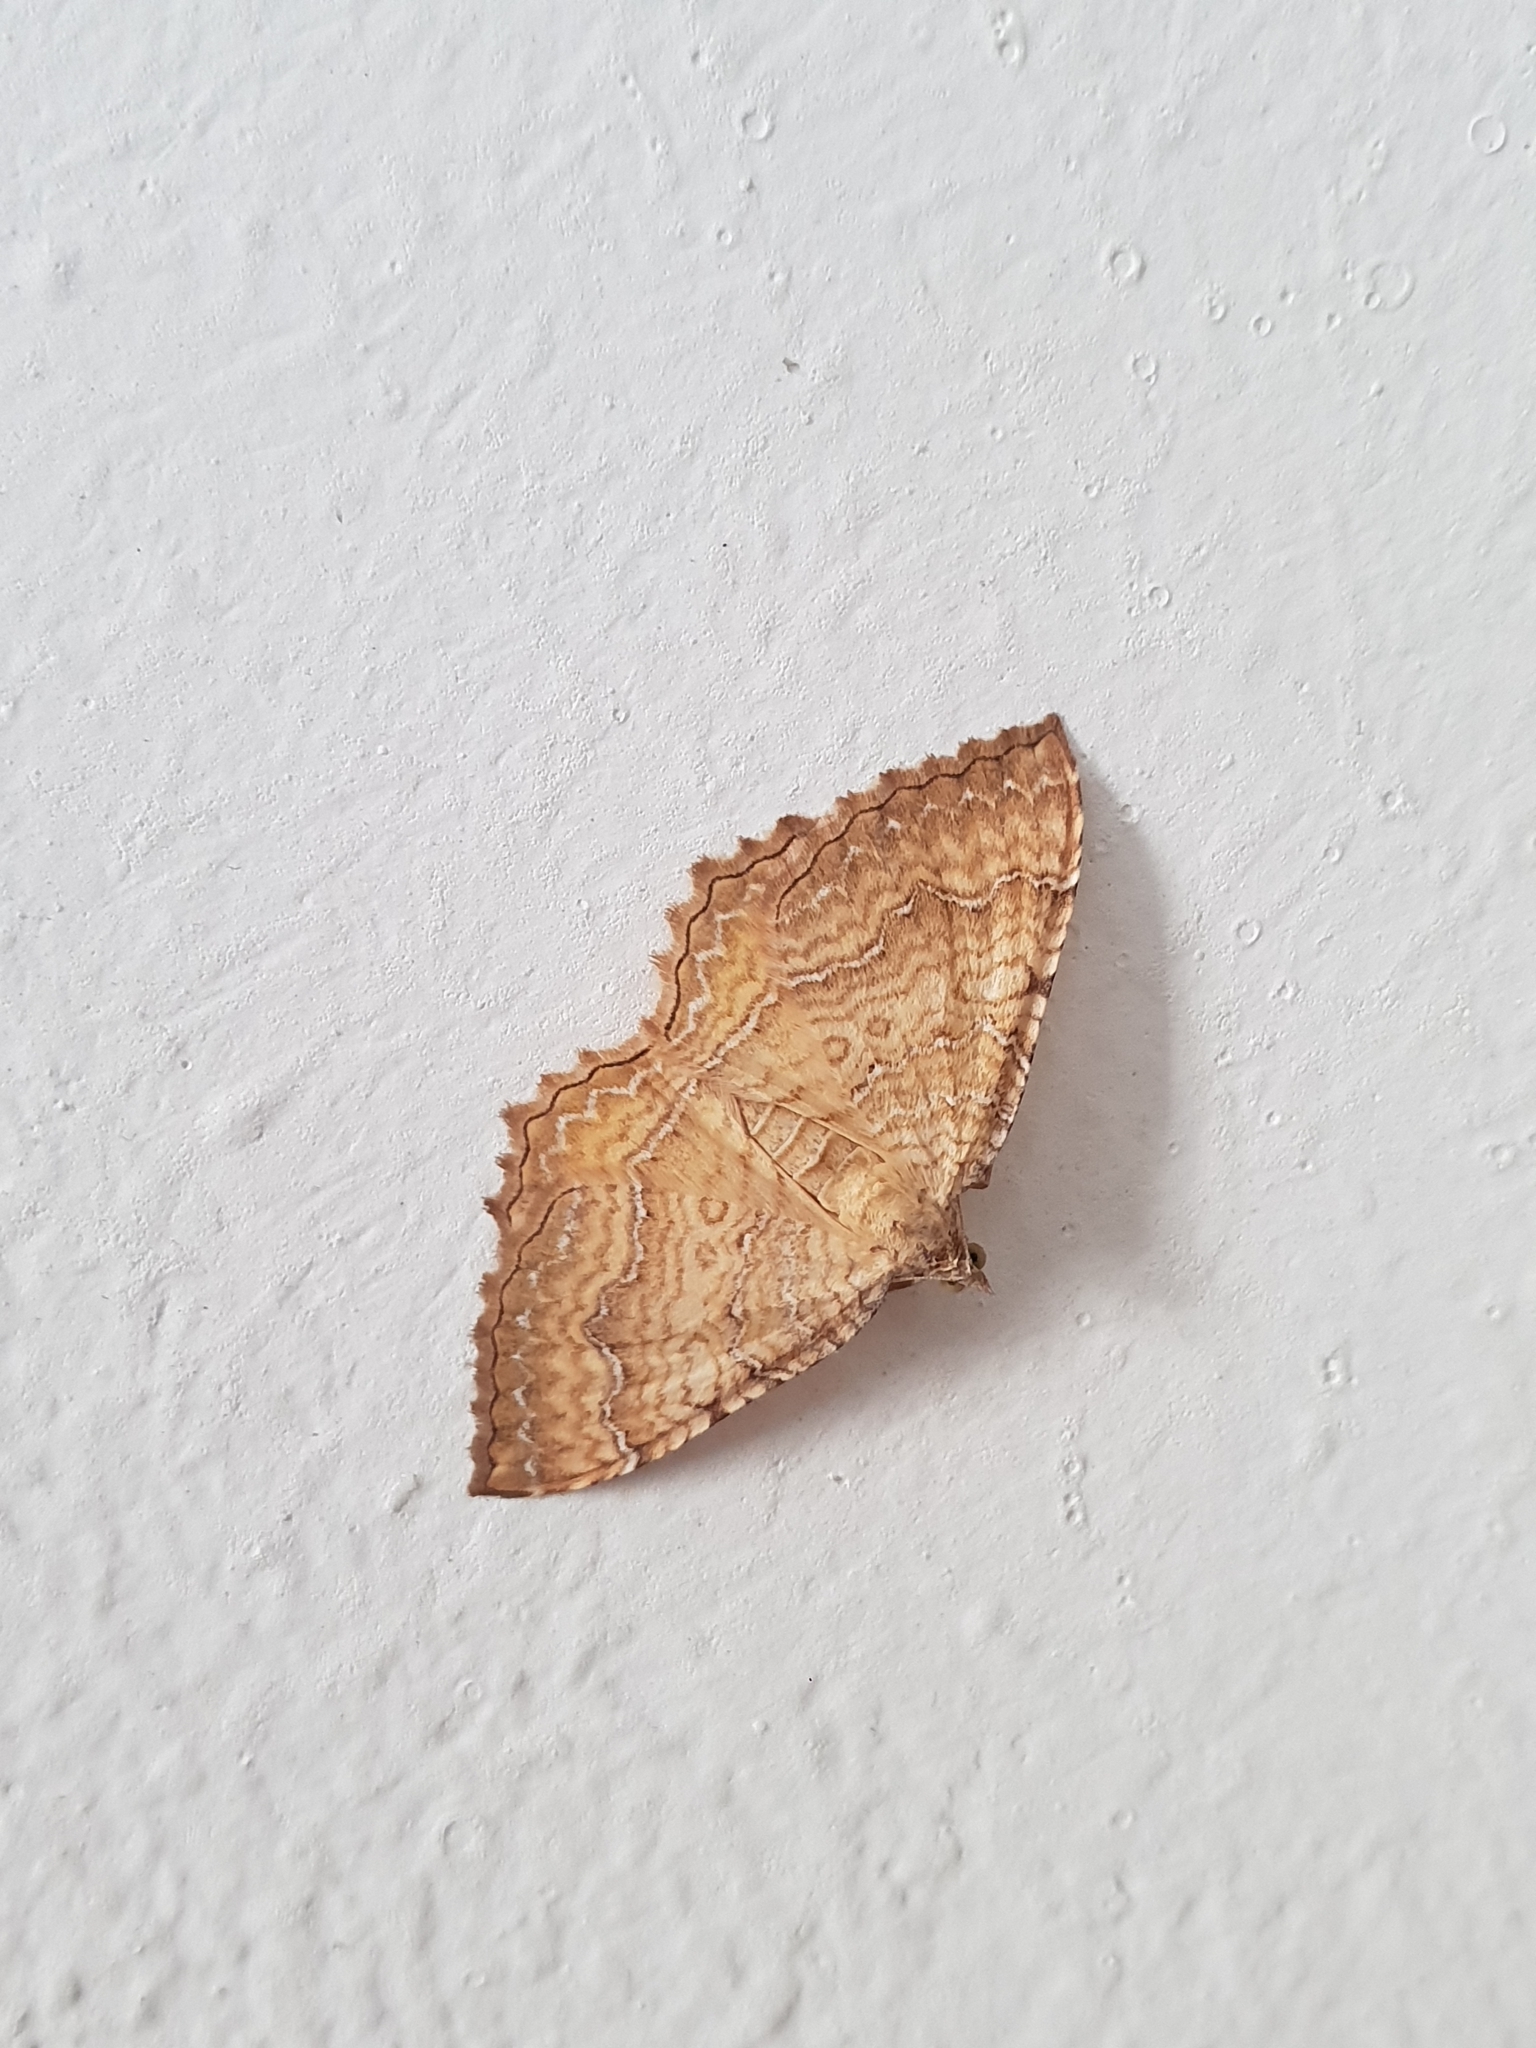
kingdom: Animalia
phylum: Arthropoda
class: Insecta
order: Lepidoptera
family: Geometridae
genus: Camptogramma
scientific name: Camptogramma bilineata
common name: Yellow shell
